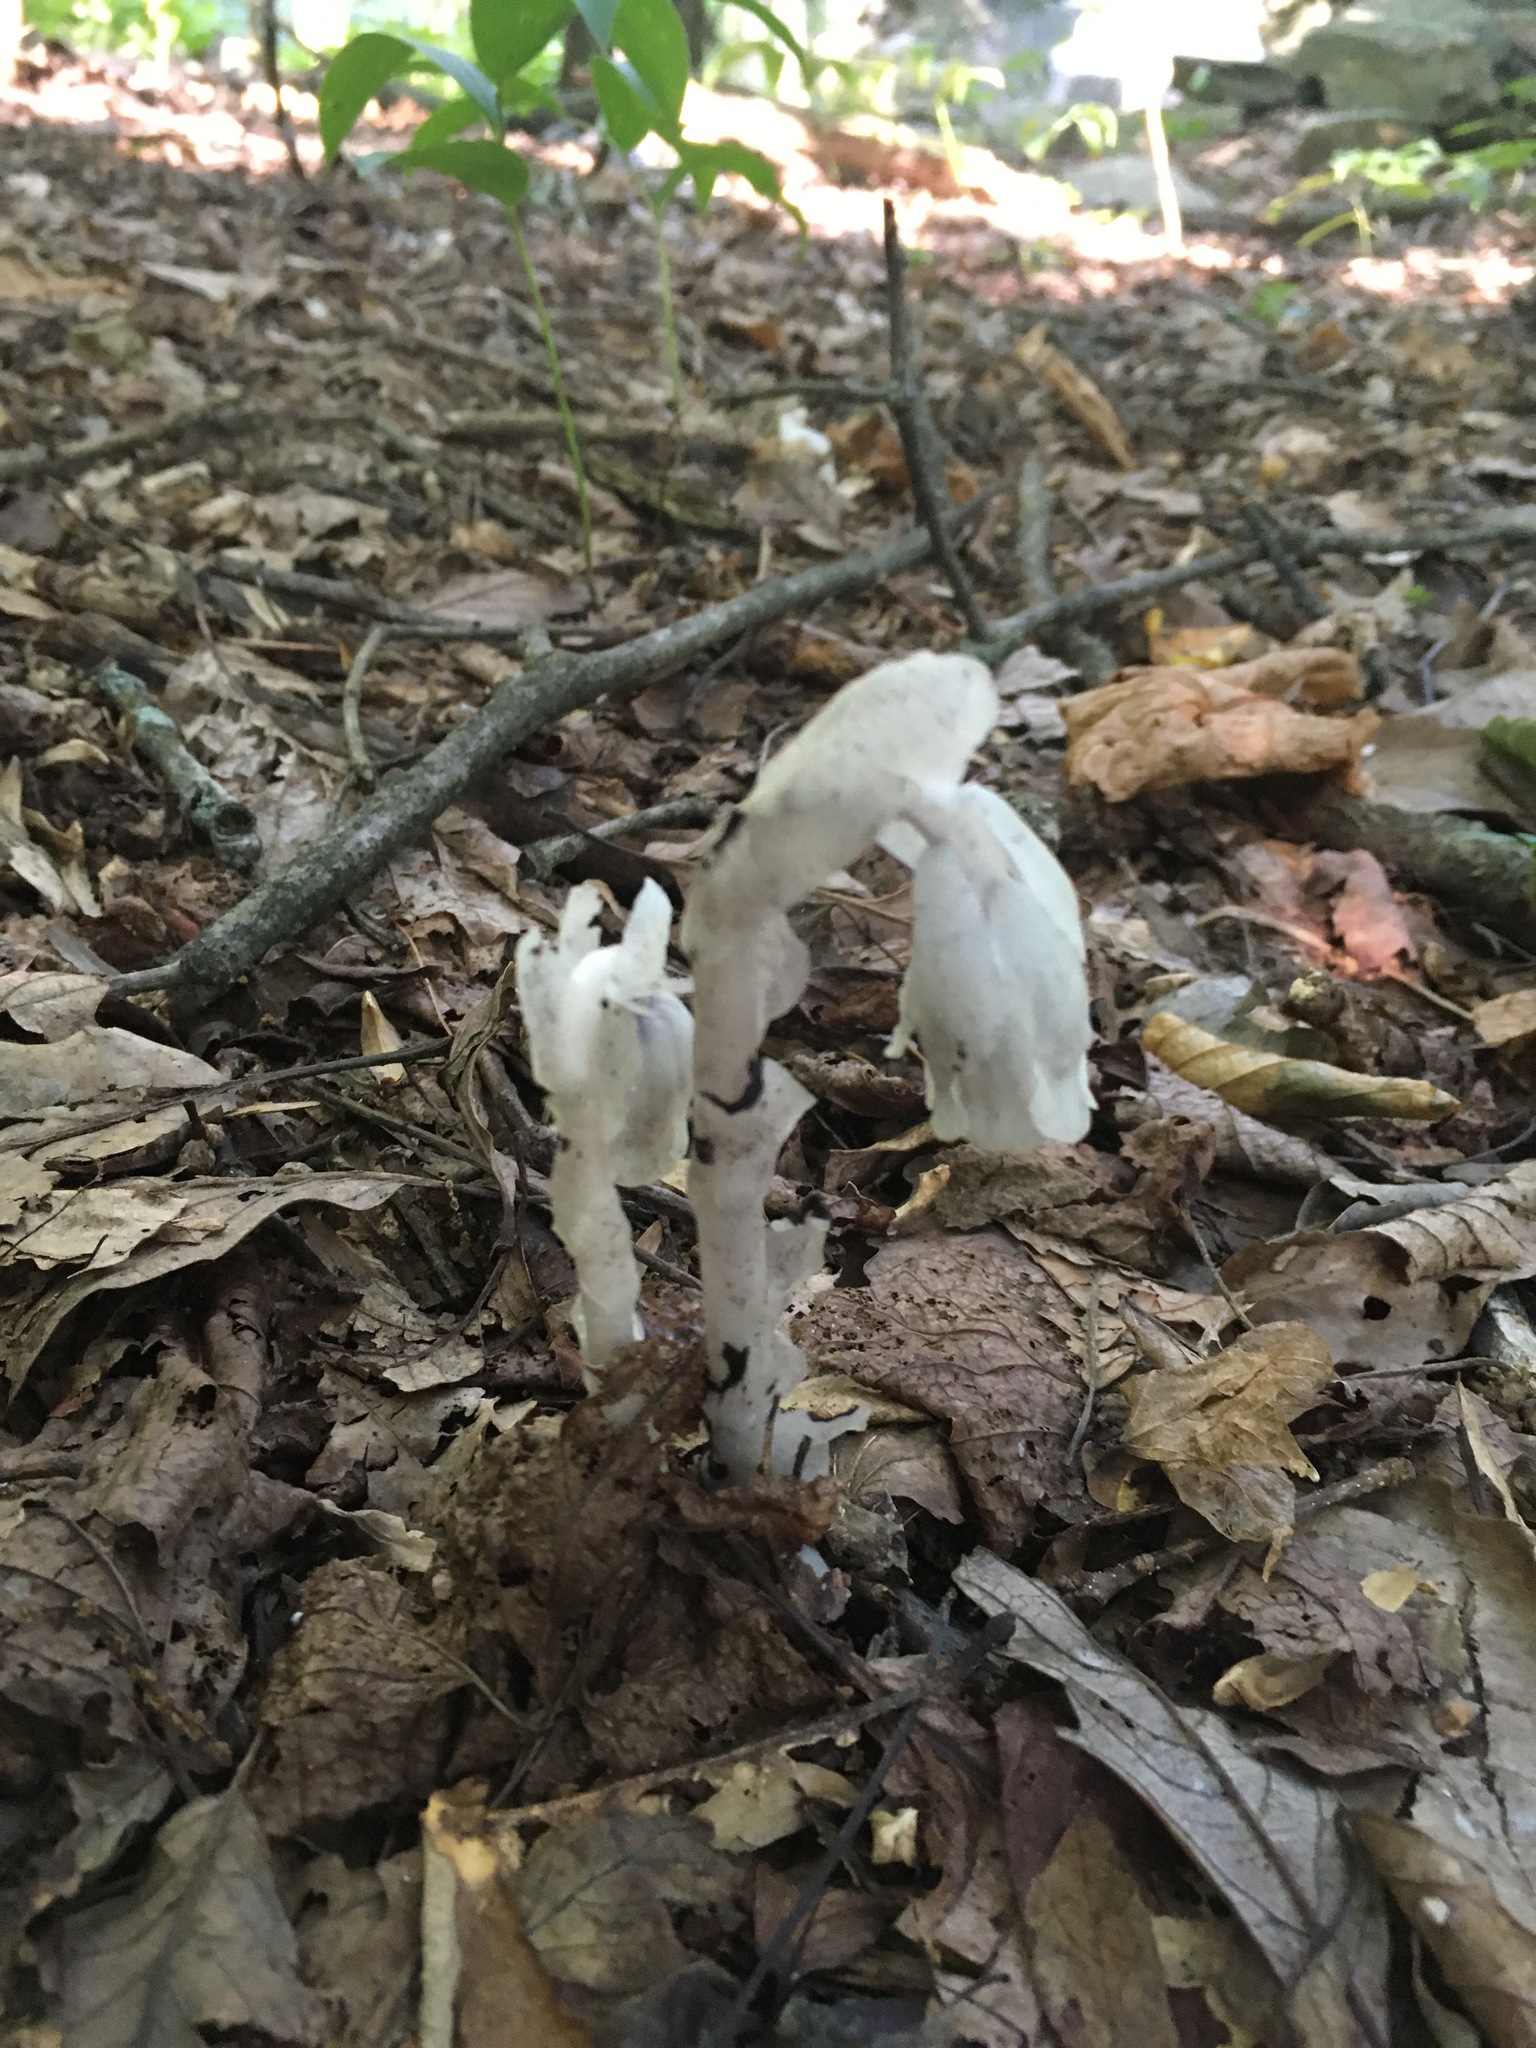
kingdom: Plantae
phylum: Tracheophyta
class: Magnoliopsida
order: Ericales
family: Ericaceae
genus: Monotropa
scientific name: Monotropa uniflora
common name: Convulsion root
